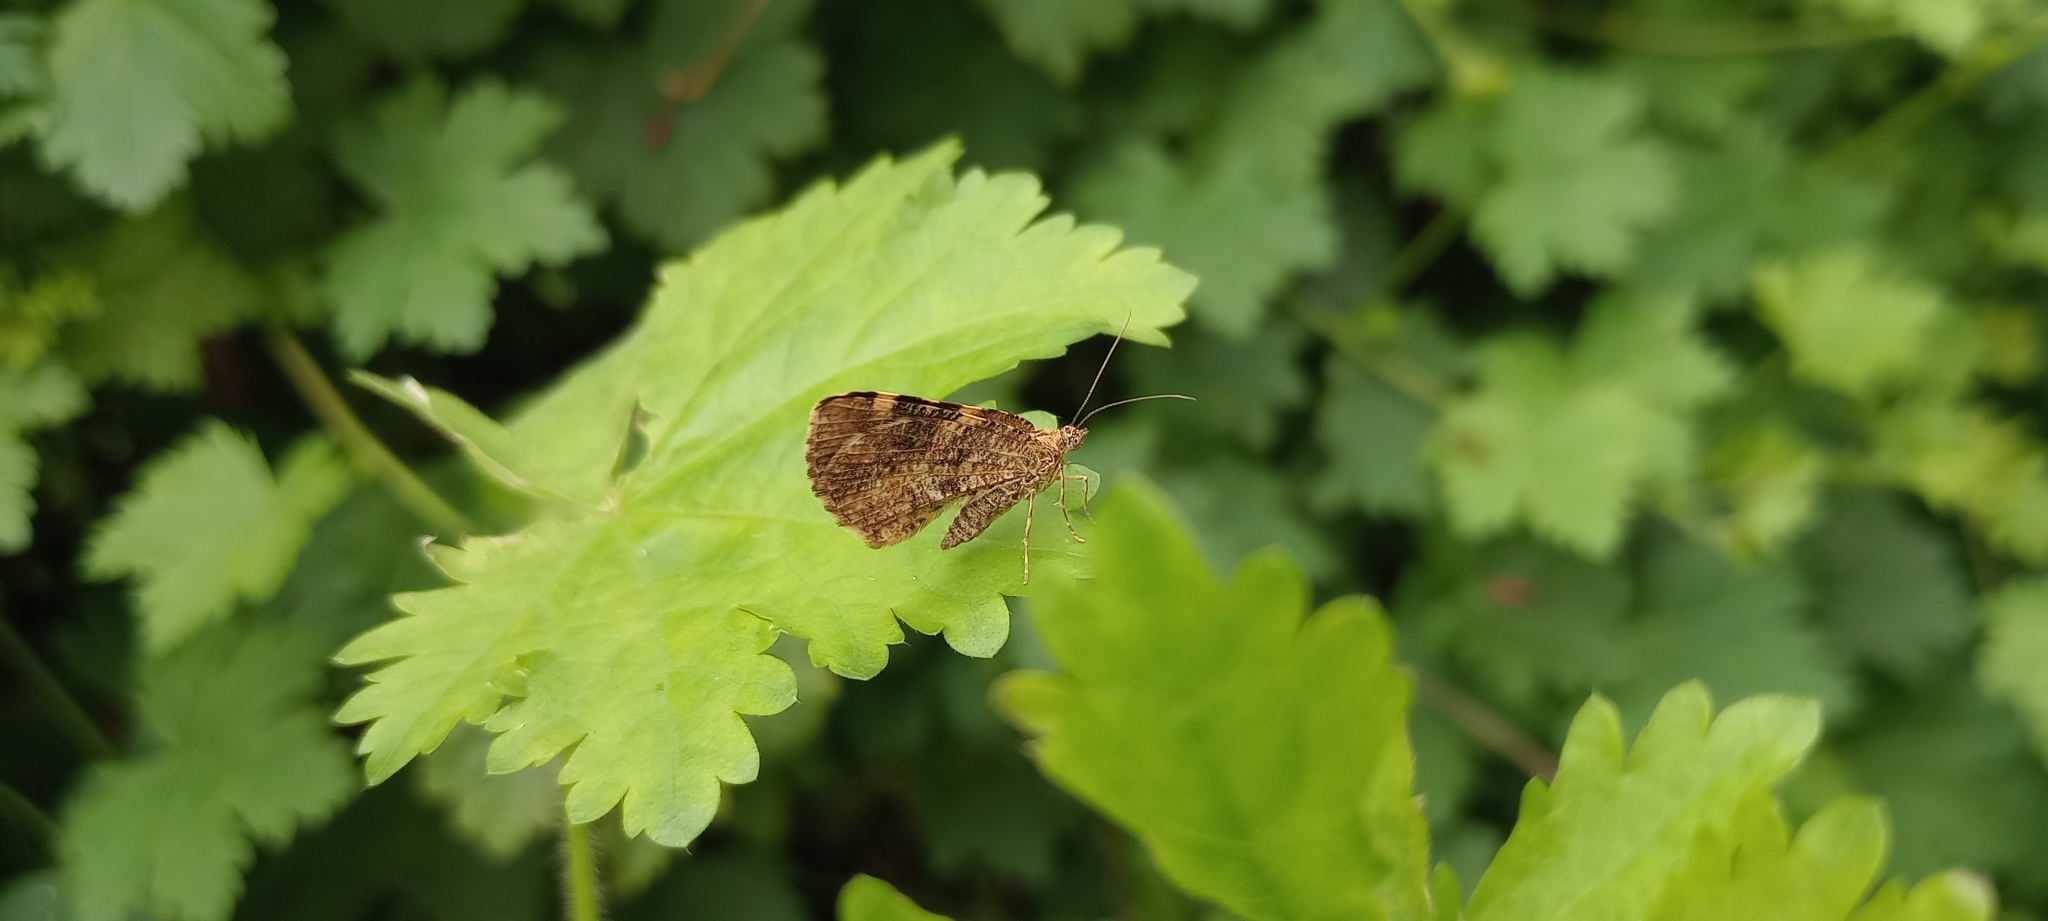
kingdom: Animalia
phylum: Arthropoda
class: Insecta
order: Lepidoptera
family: Geometridae
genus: Heterusia
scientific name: Heterusia quadruplicaria
